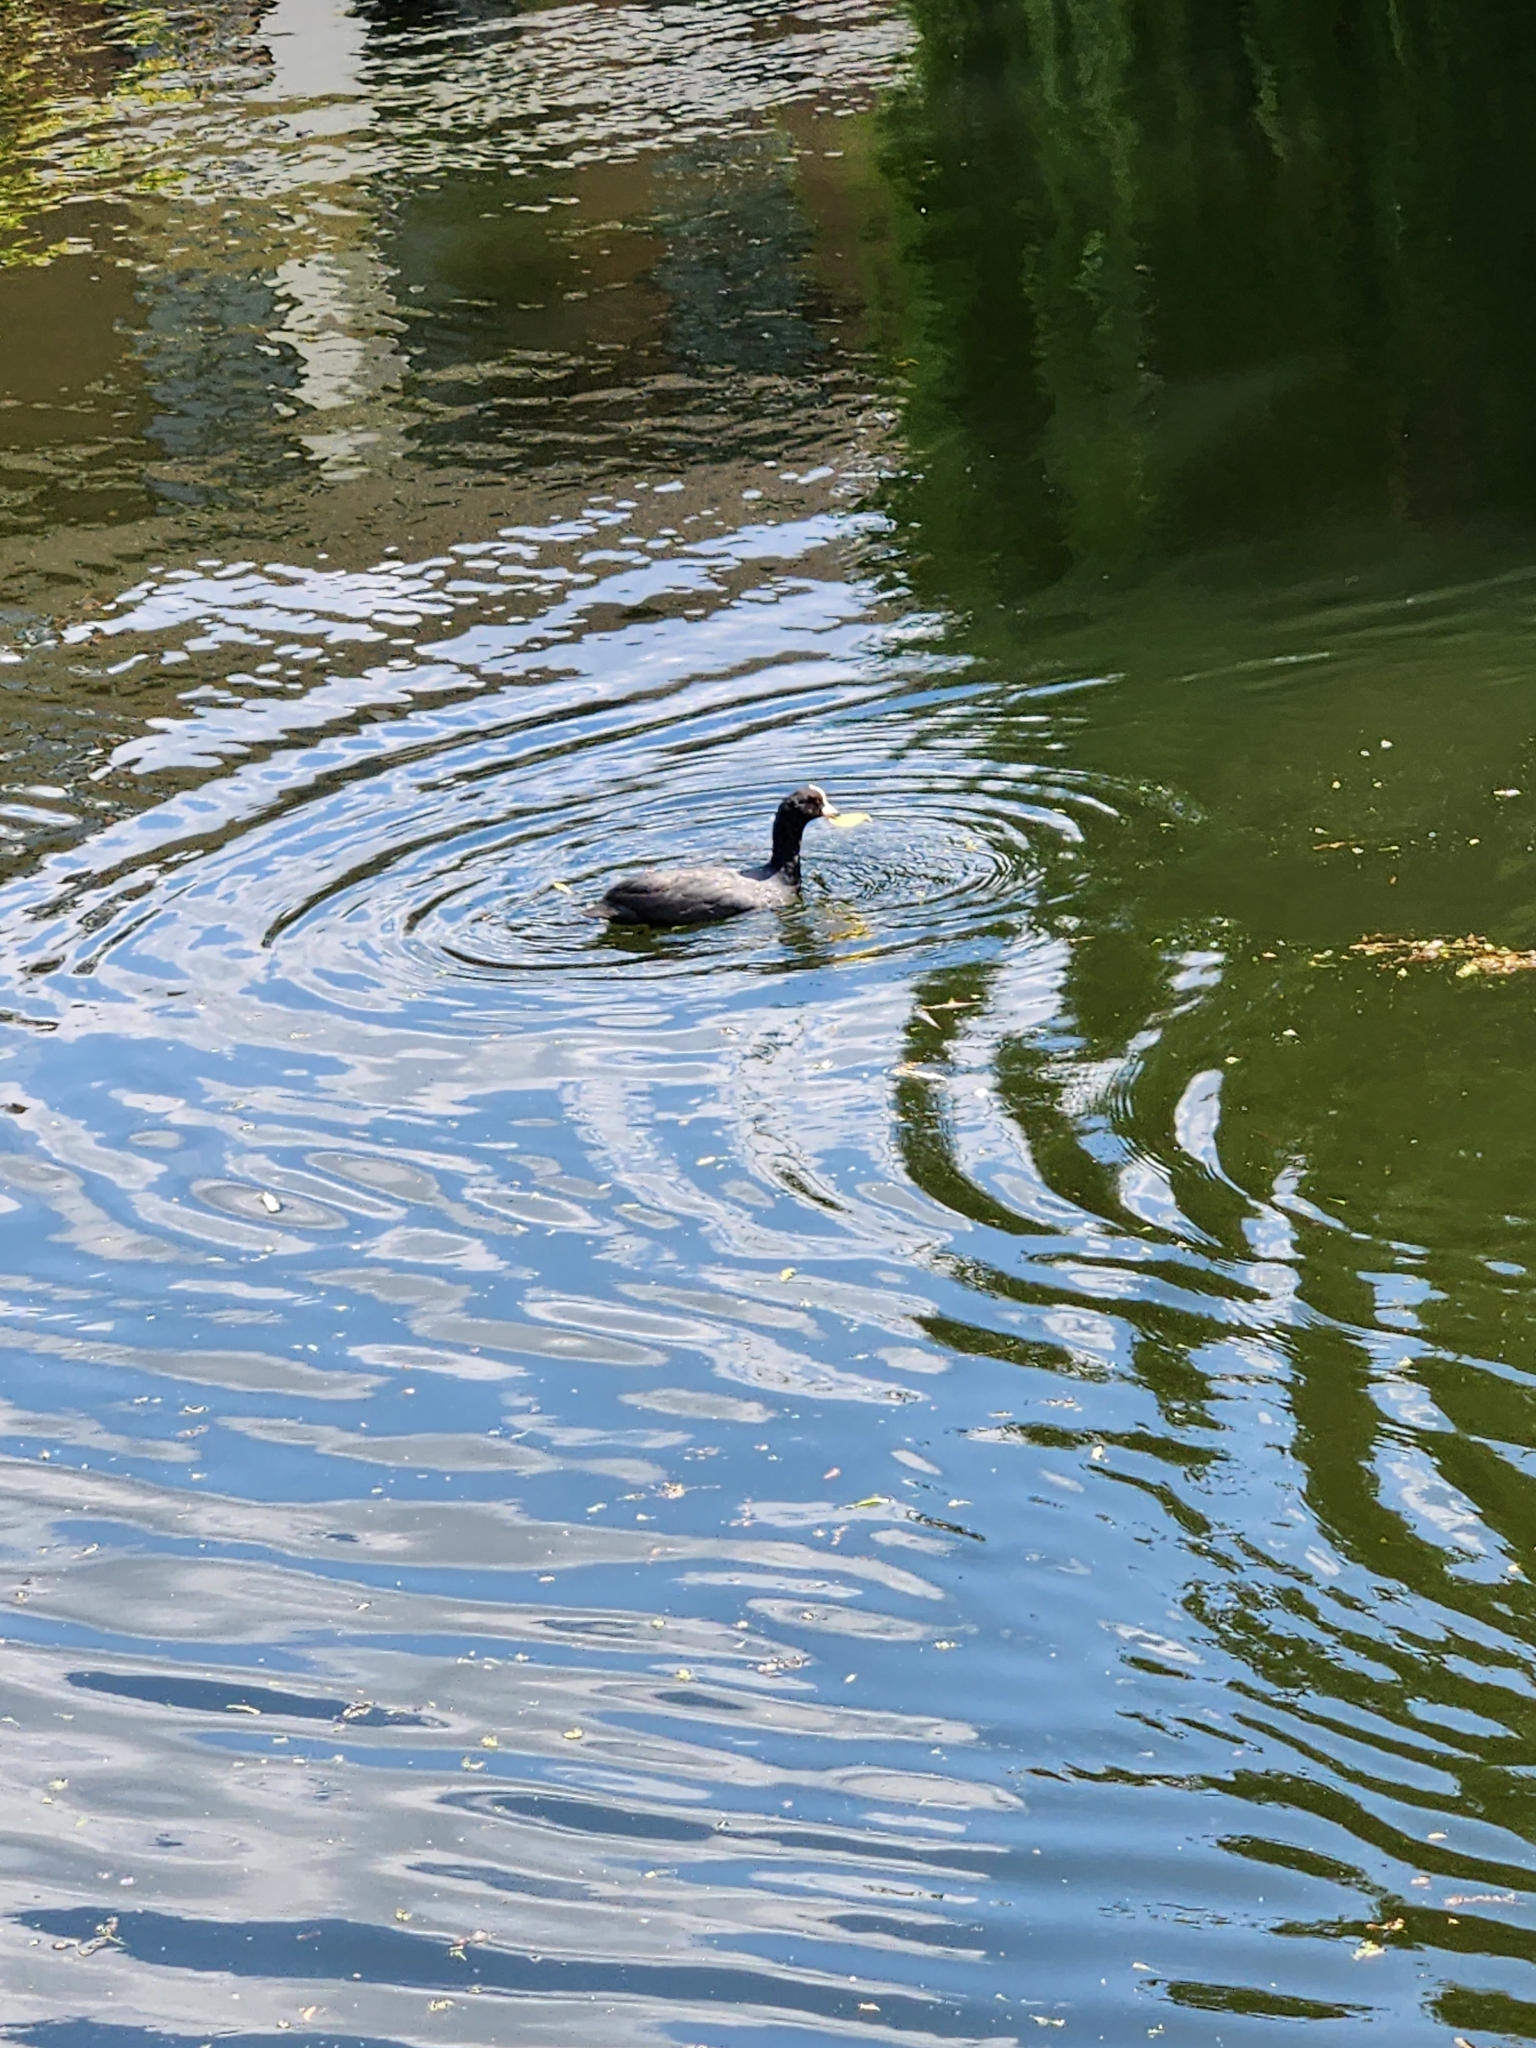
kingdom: Animalia
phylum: Chordata
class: Aves
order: Gruiformes
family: Rallidae
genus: Fulica
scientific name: Fulica atra
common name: Eurasian coot
